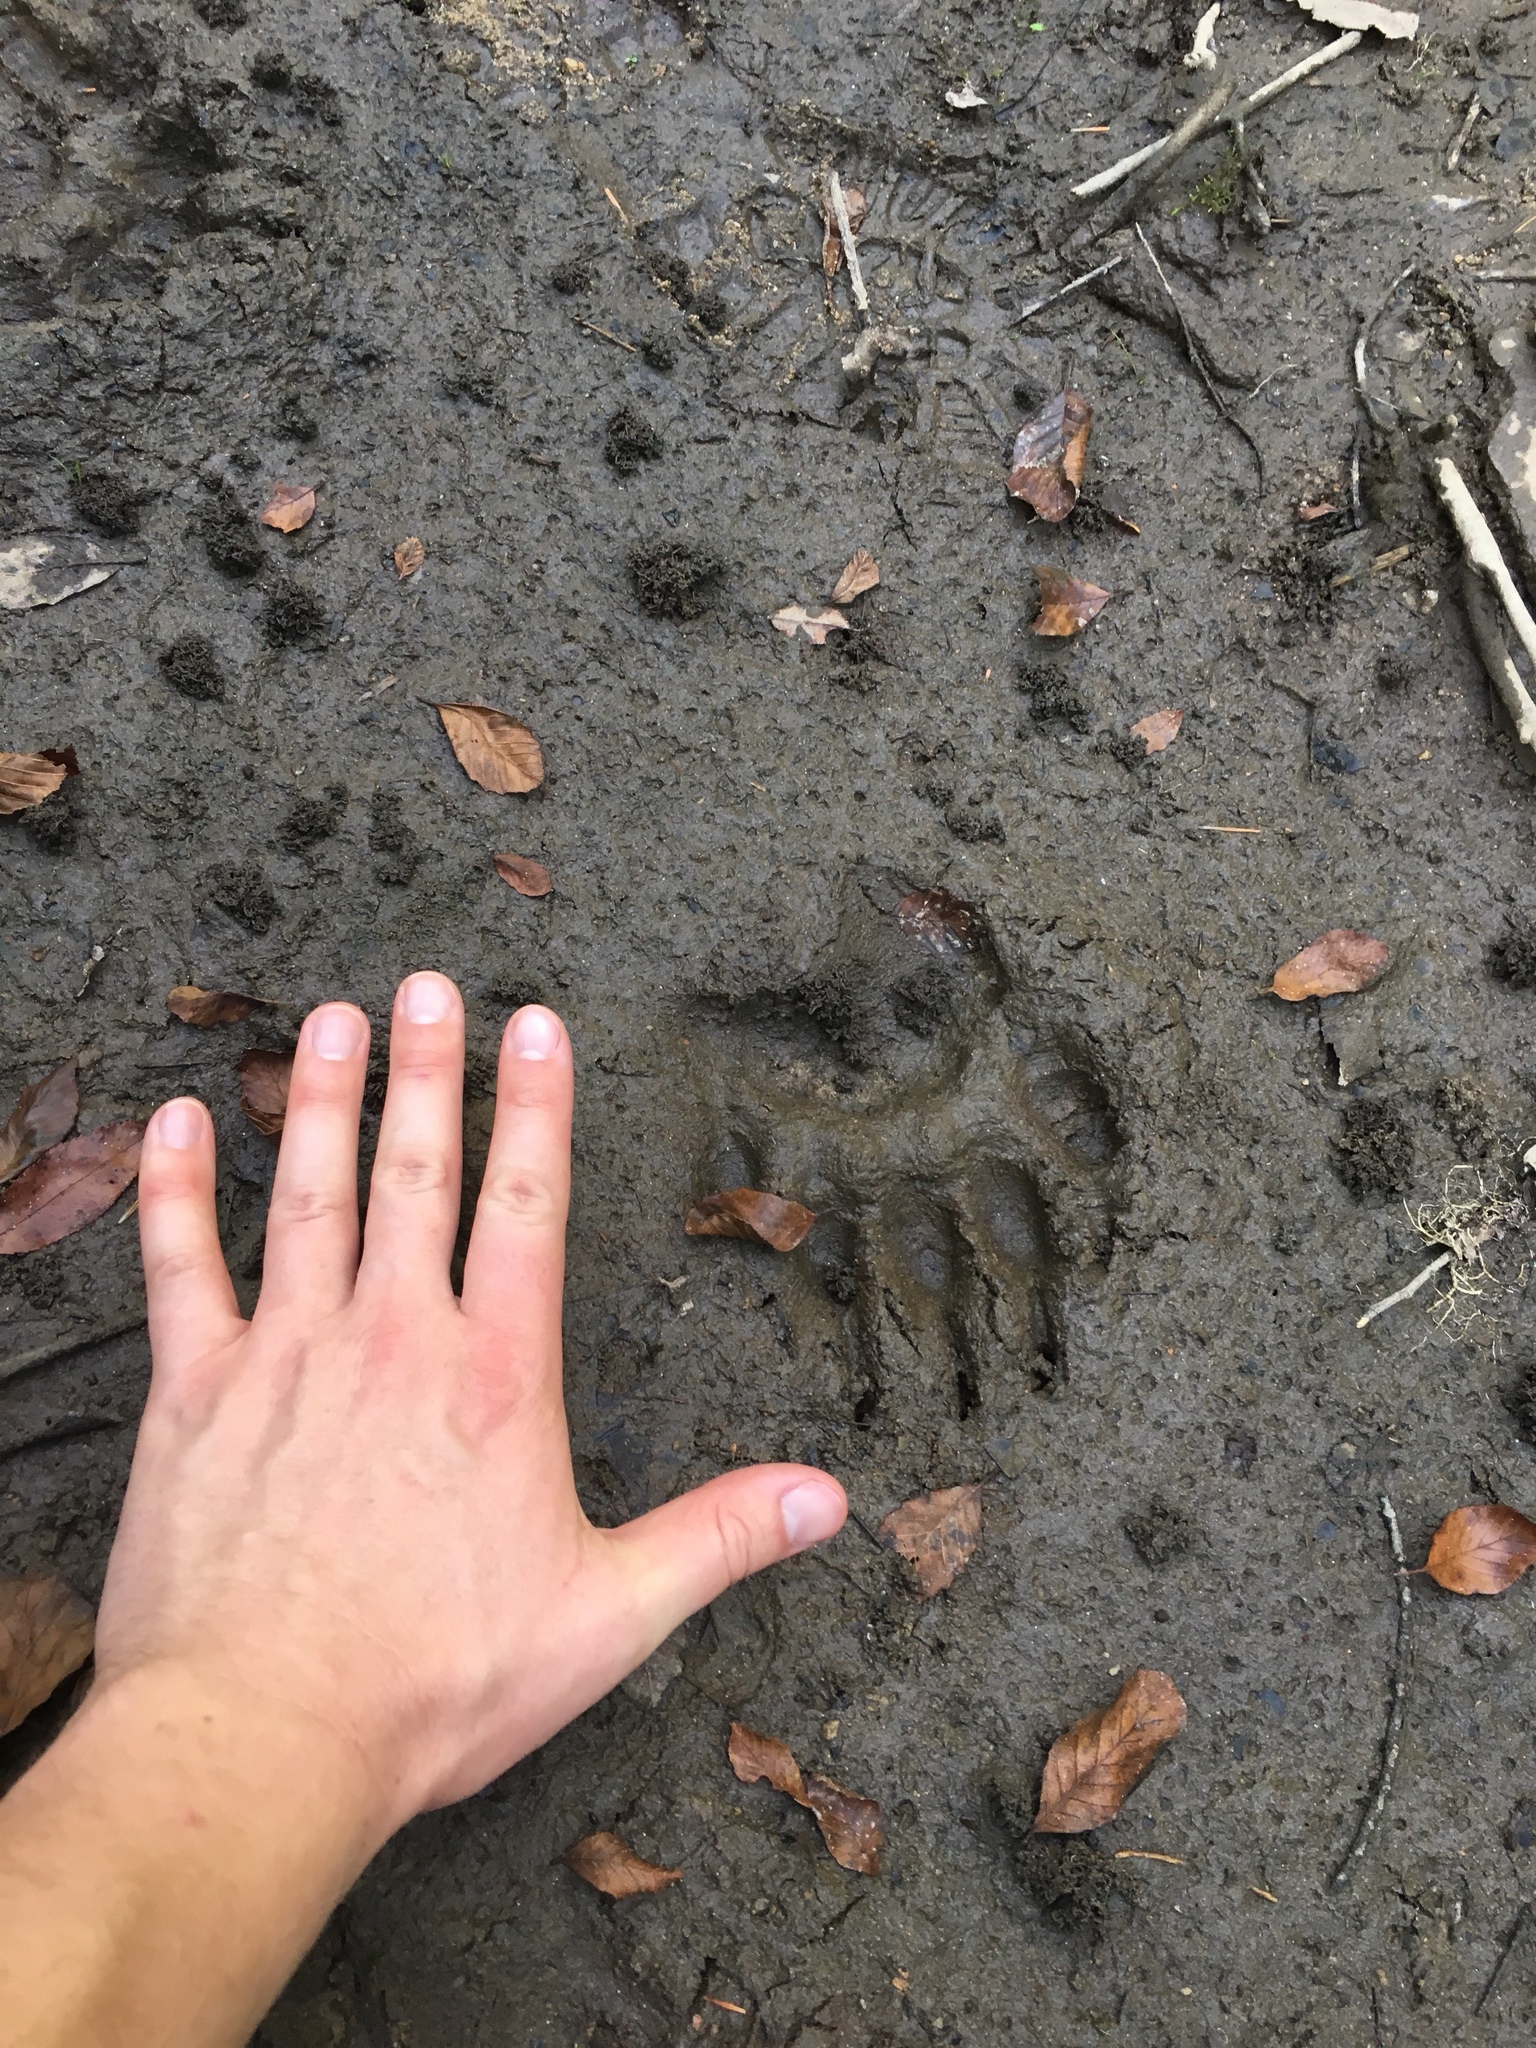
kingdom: Animalia
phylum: Chordata
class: Mammalia
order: Carnivora
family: Ursidae
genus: Ursus
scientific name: Ursus americanus
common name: American black bear
